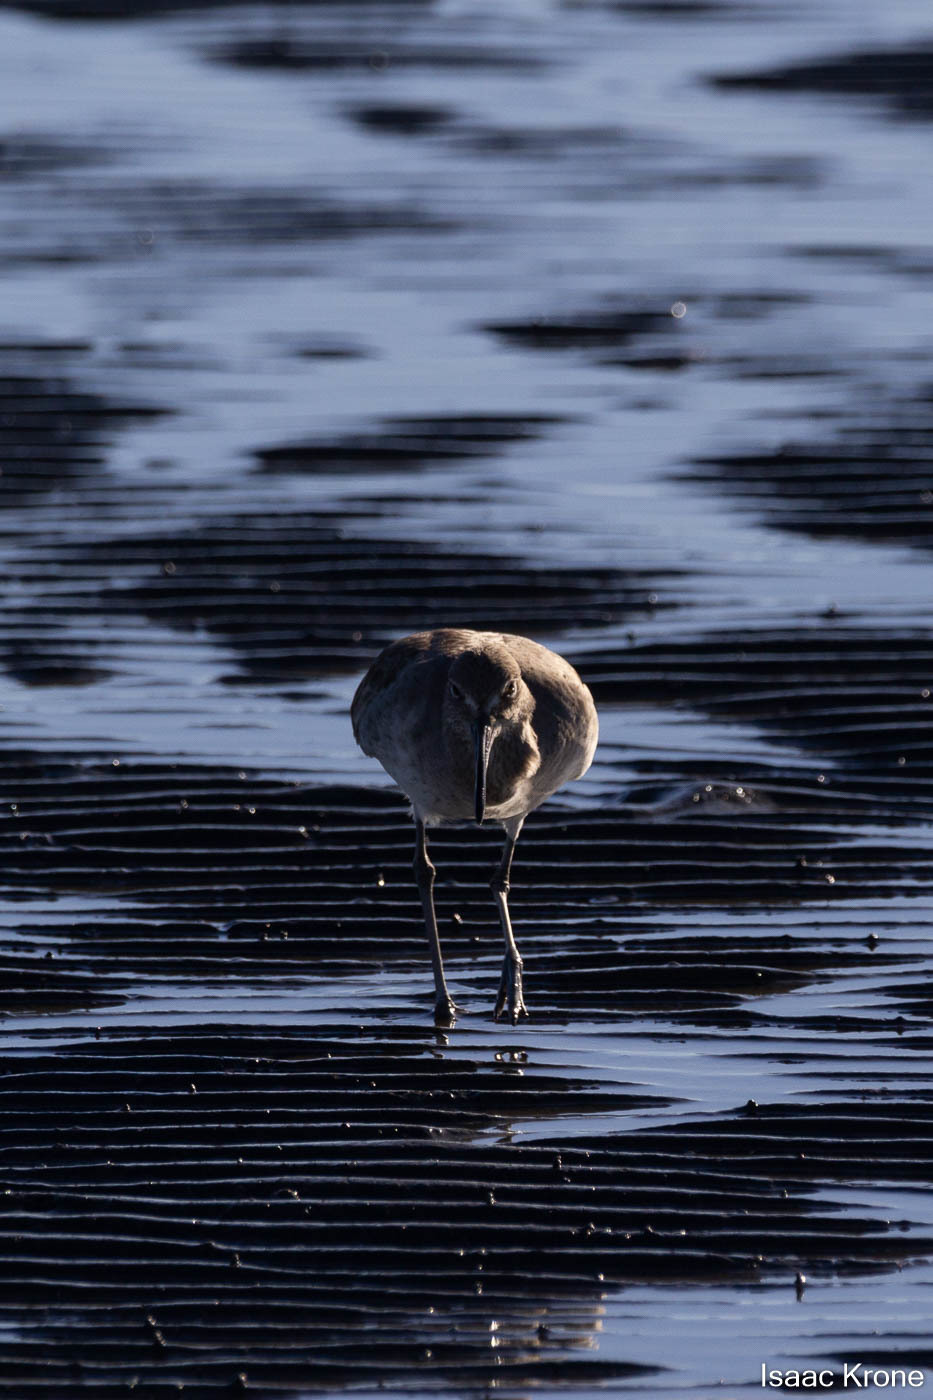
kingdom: Animalia
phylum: Chordata
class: Aves
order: Charadriiformes
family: Scolopacidae
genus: Tringa
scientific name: Tringa semipalmata
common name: Willet
